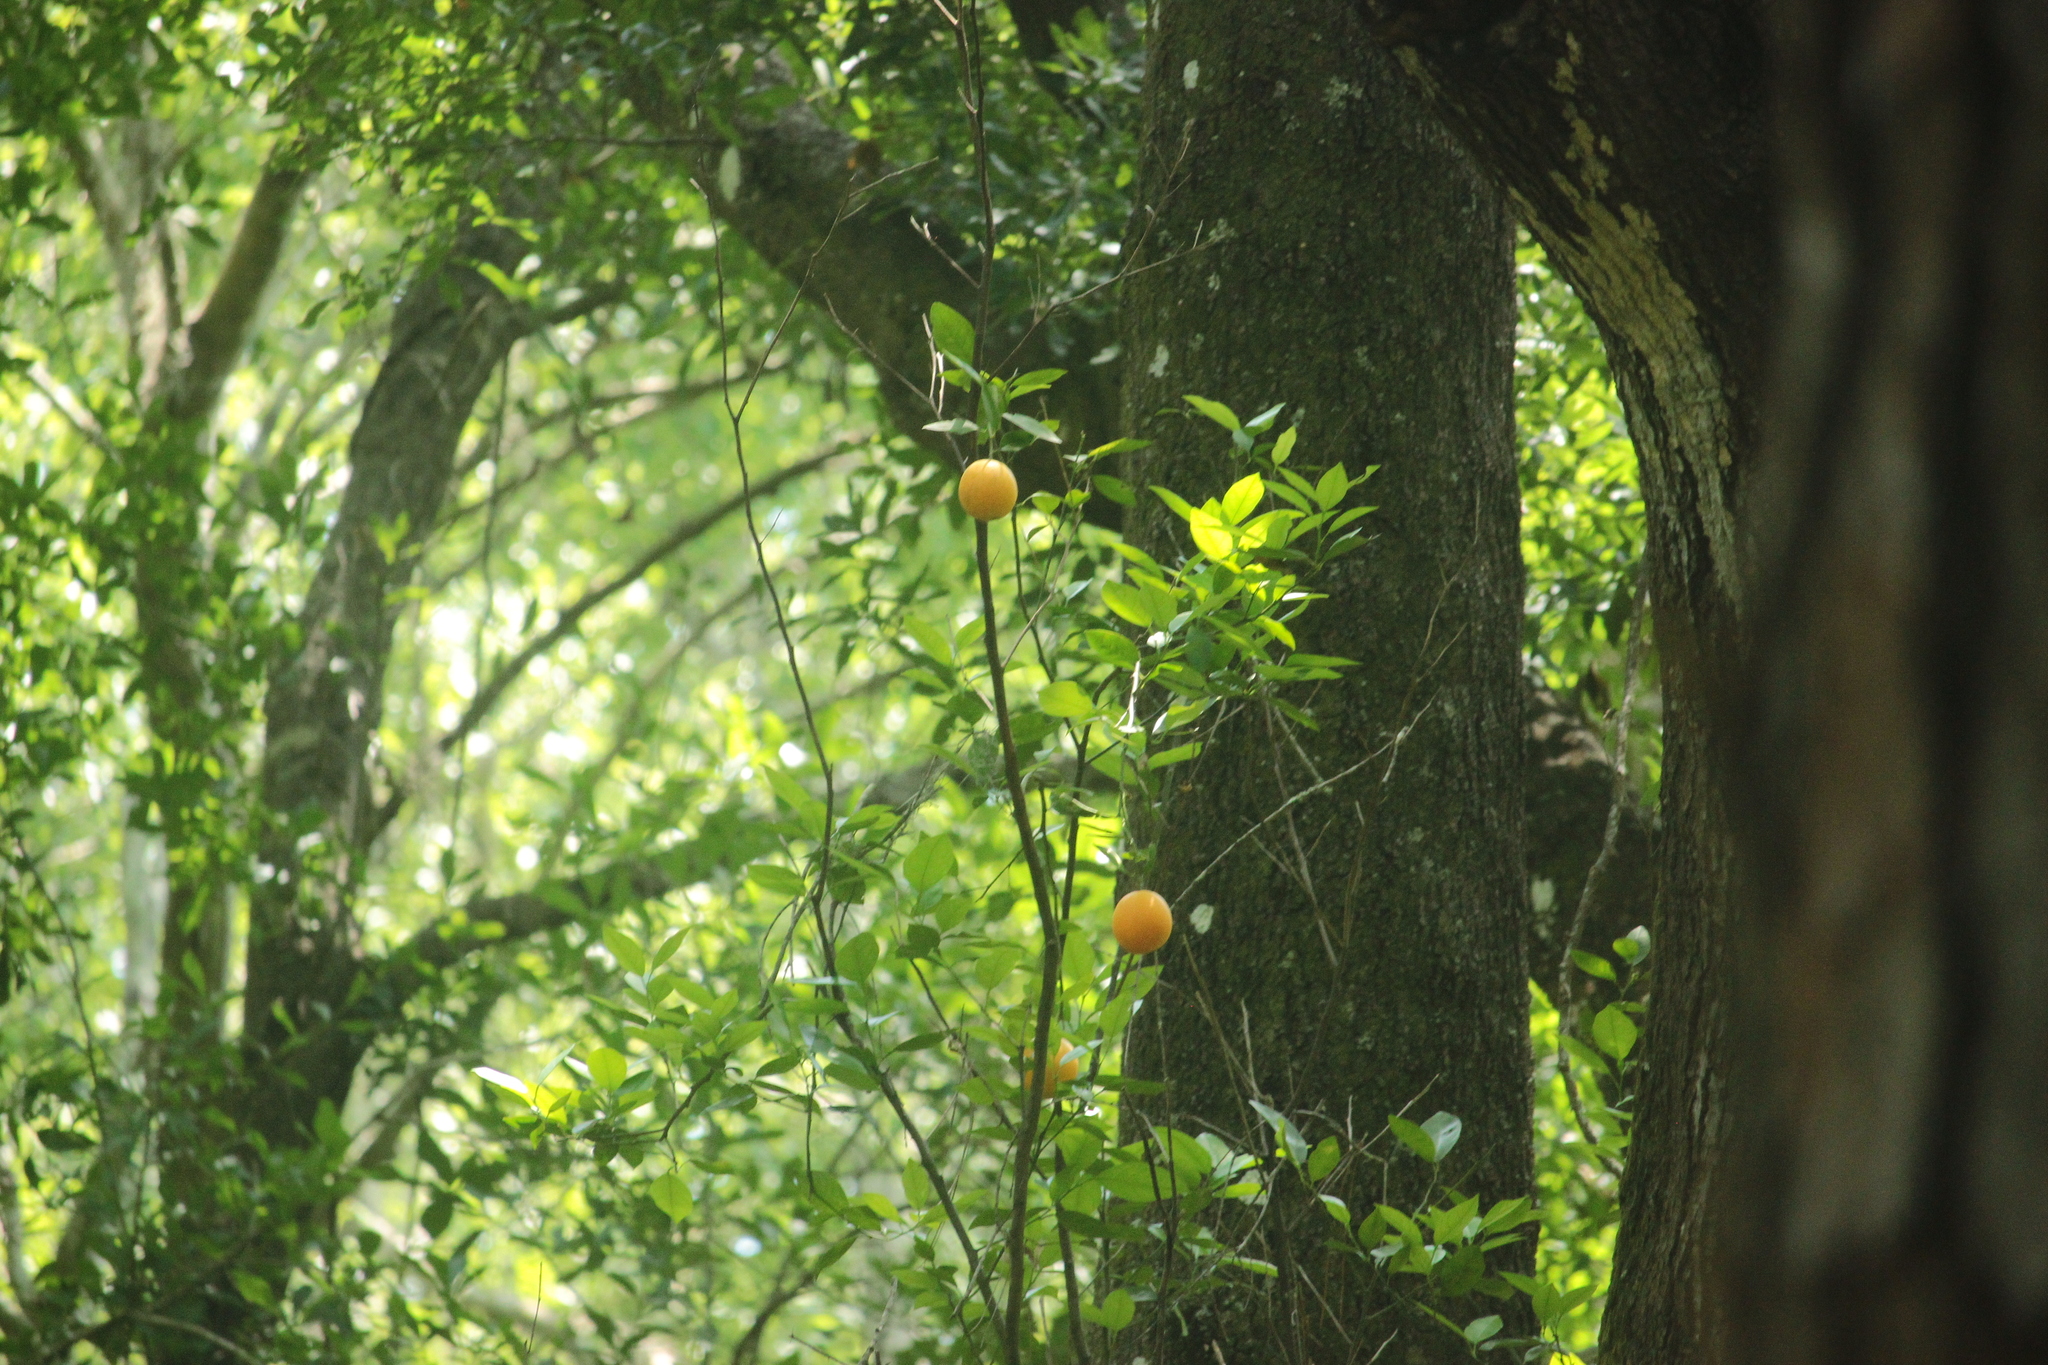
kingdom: Plantae
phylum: Tracheophyta
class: Magnoliopsida
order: Sapindales
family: Rutaceae
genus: Citrus
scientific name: Citrus aurantium
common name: Sour orange
